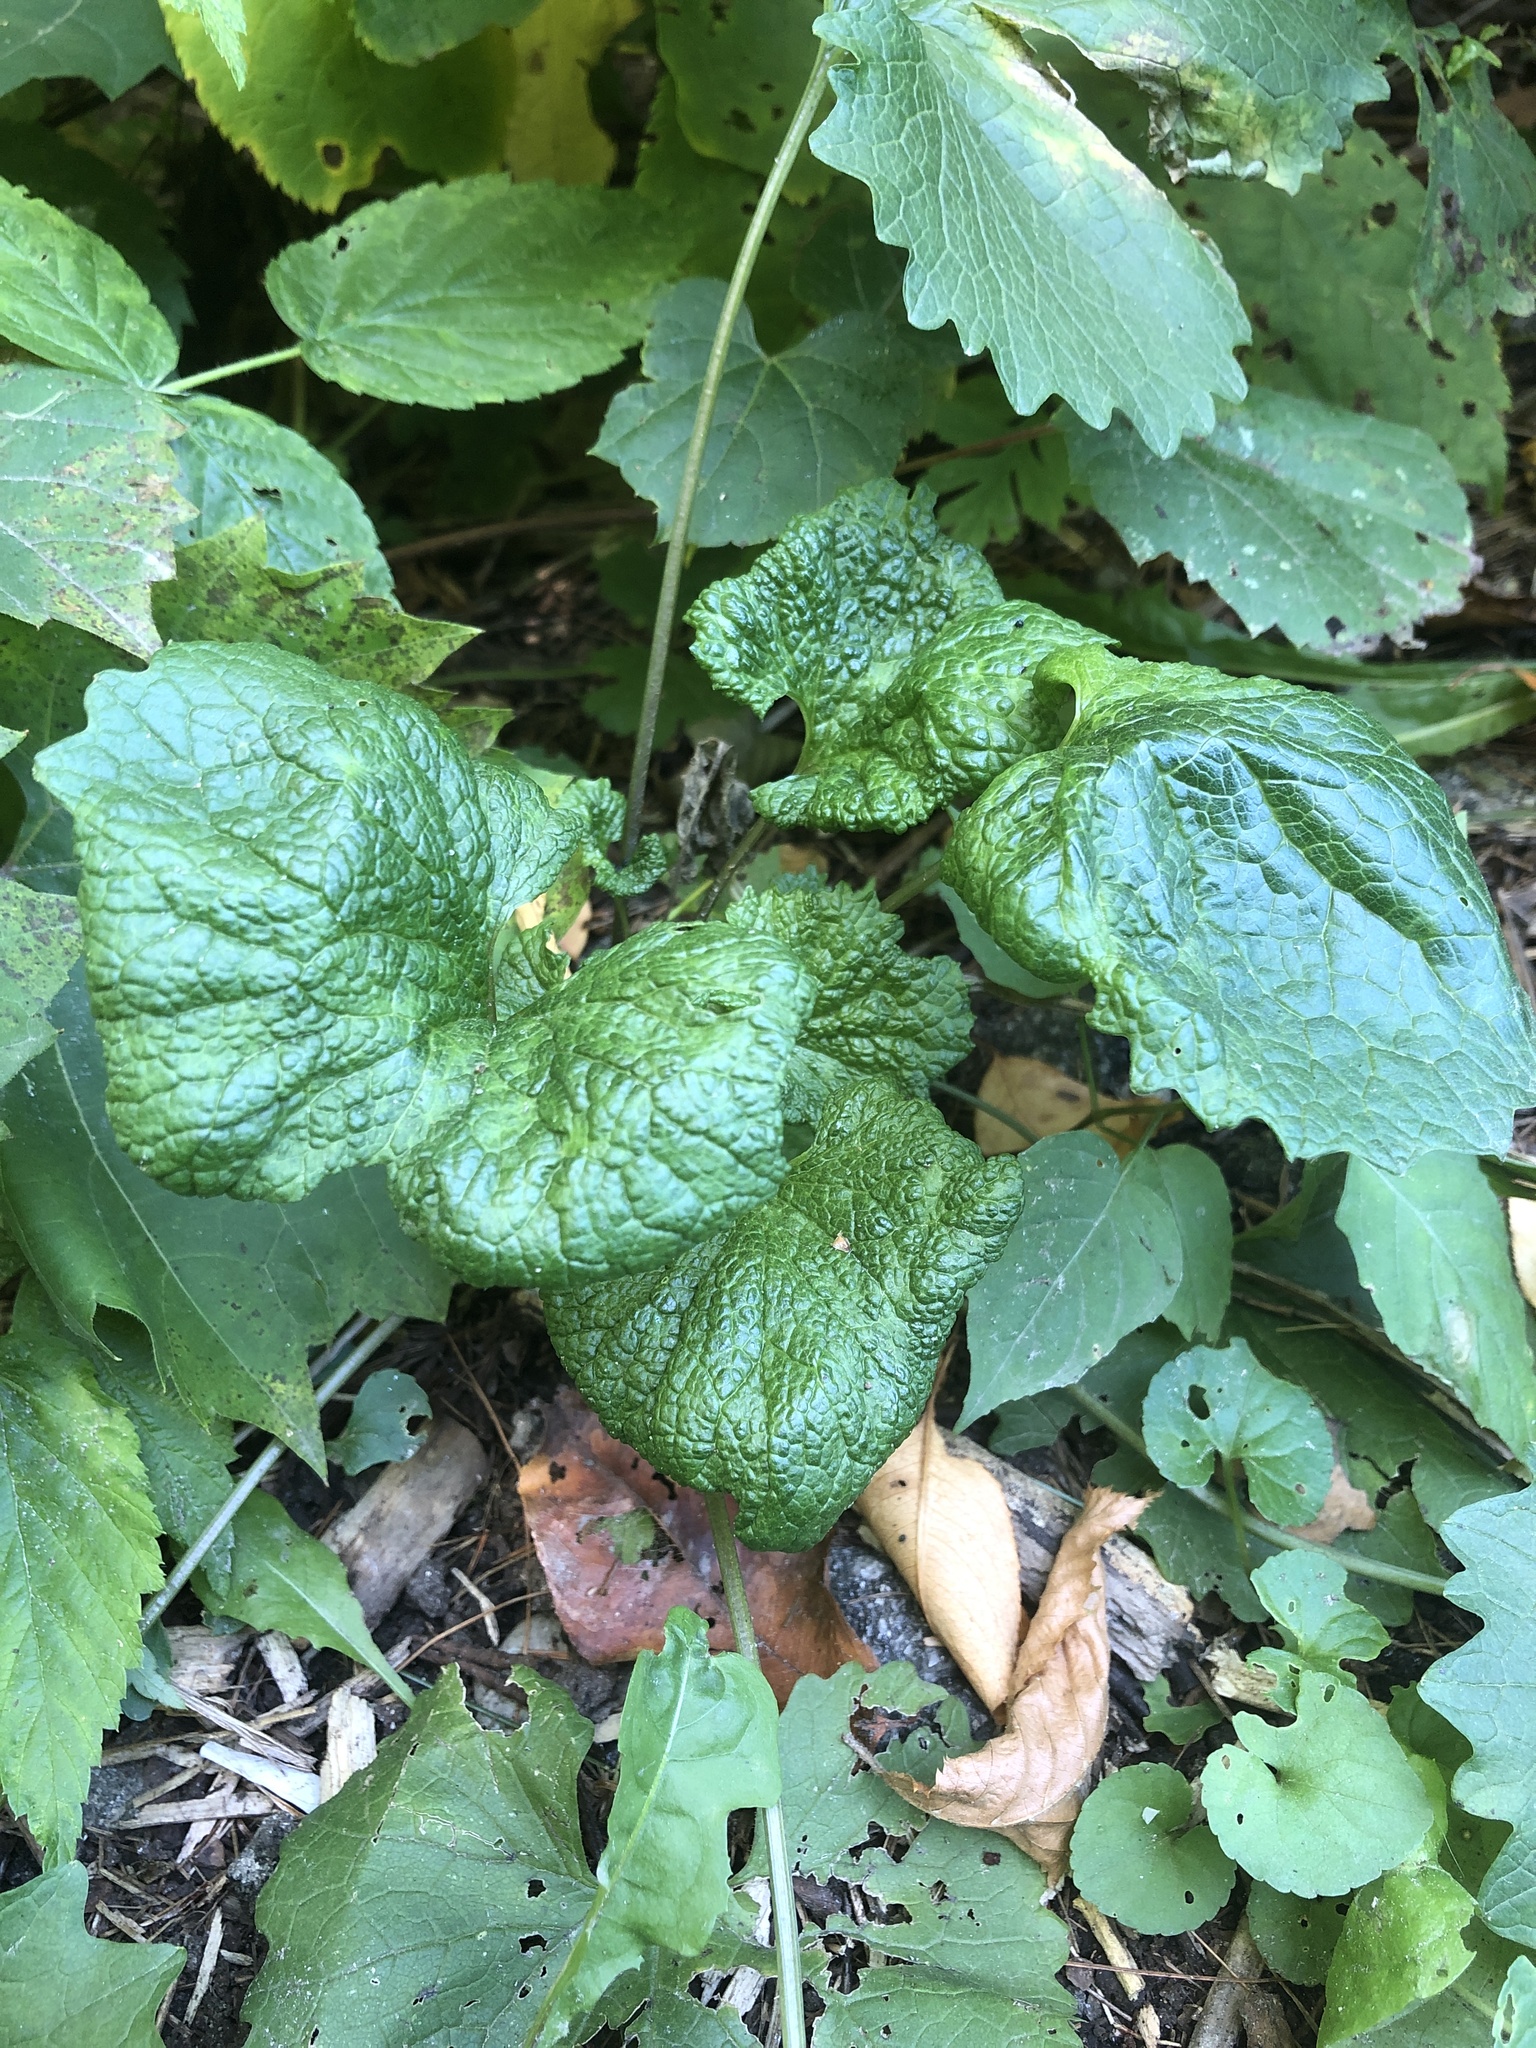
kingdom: Plantae
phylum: Tracheophyta
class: Magnoliopsida
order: Brassicales
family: Brassicaceae
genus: Alliaria
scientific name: Alliaria petiolata
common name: Garlic mustard
